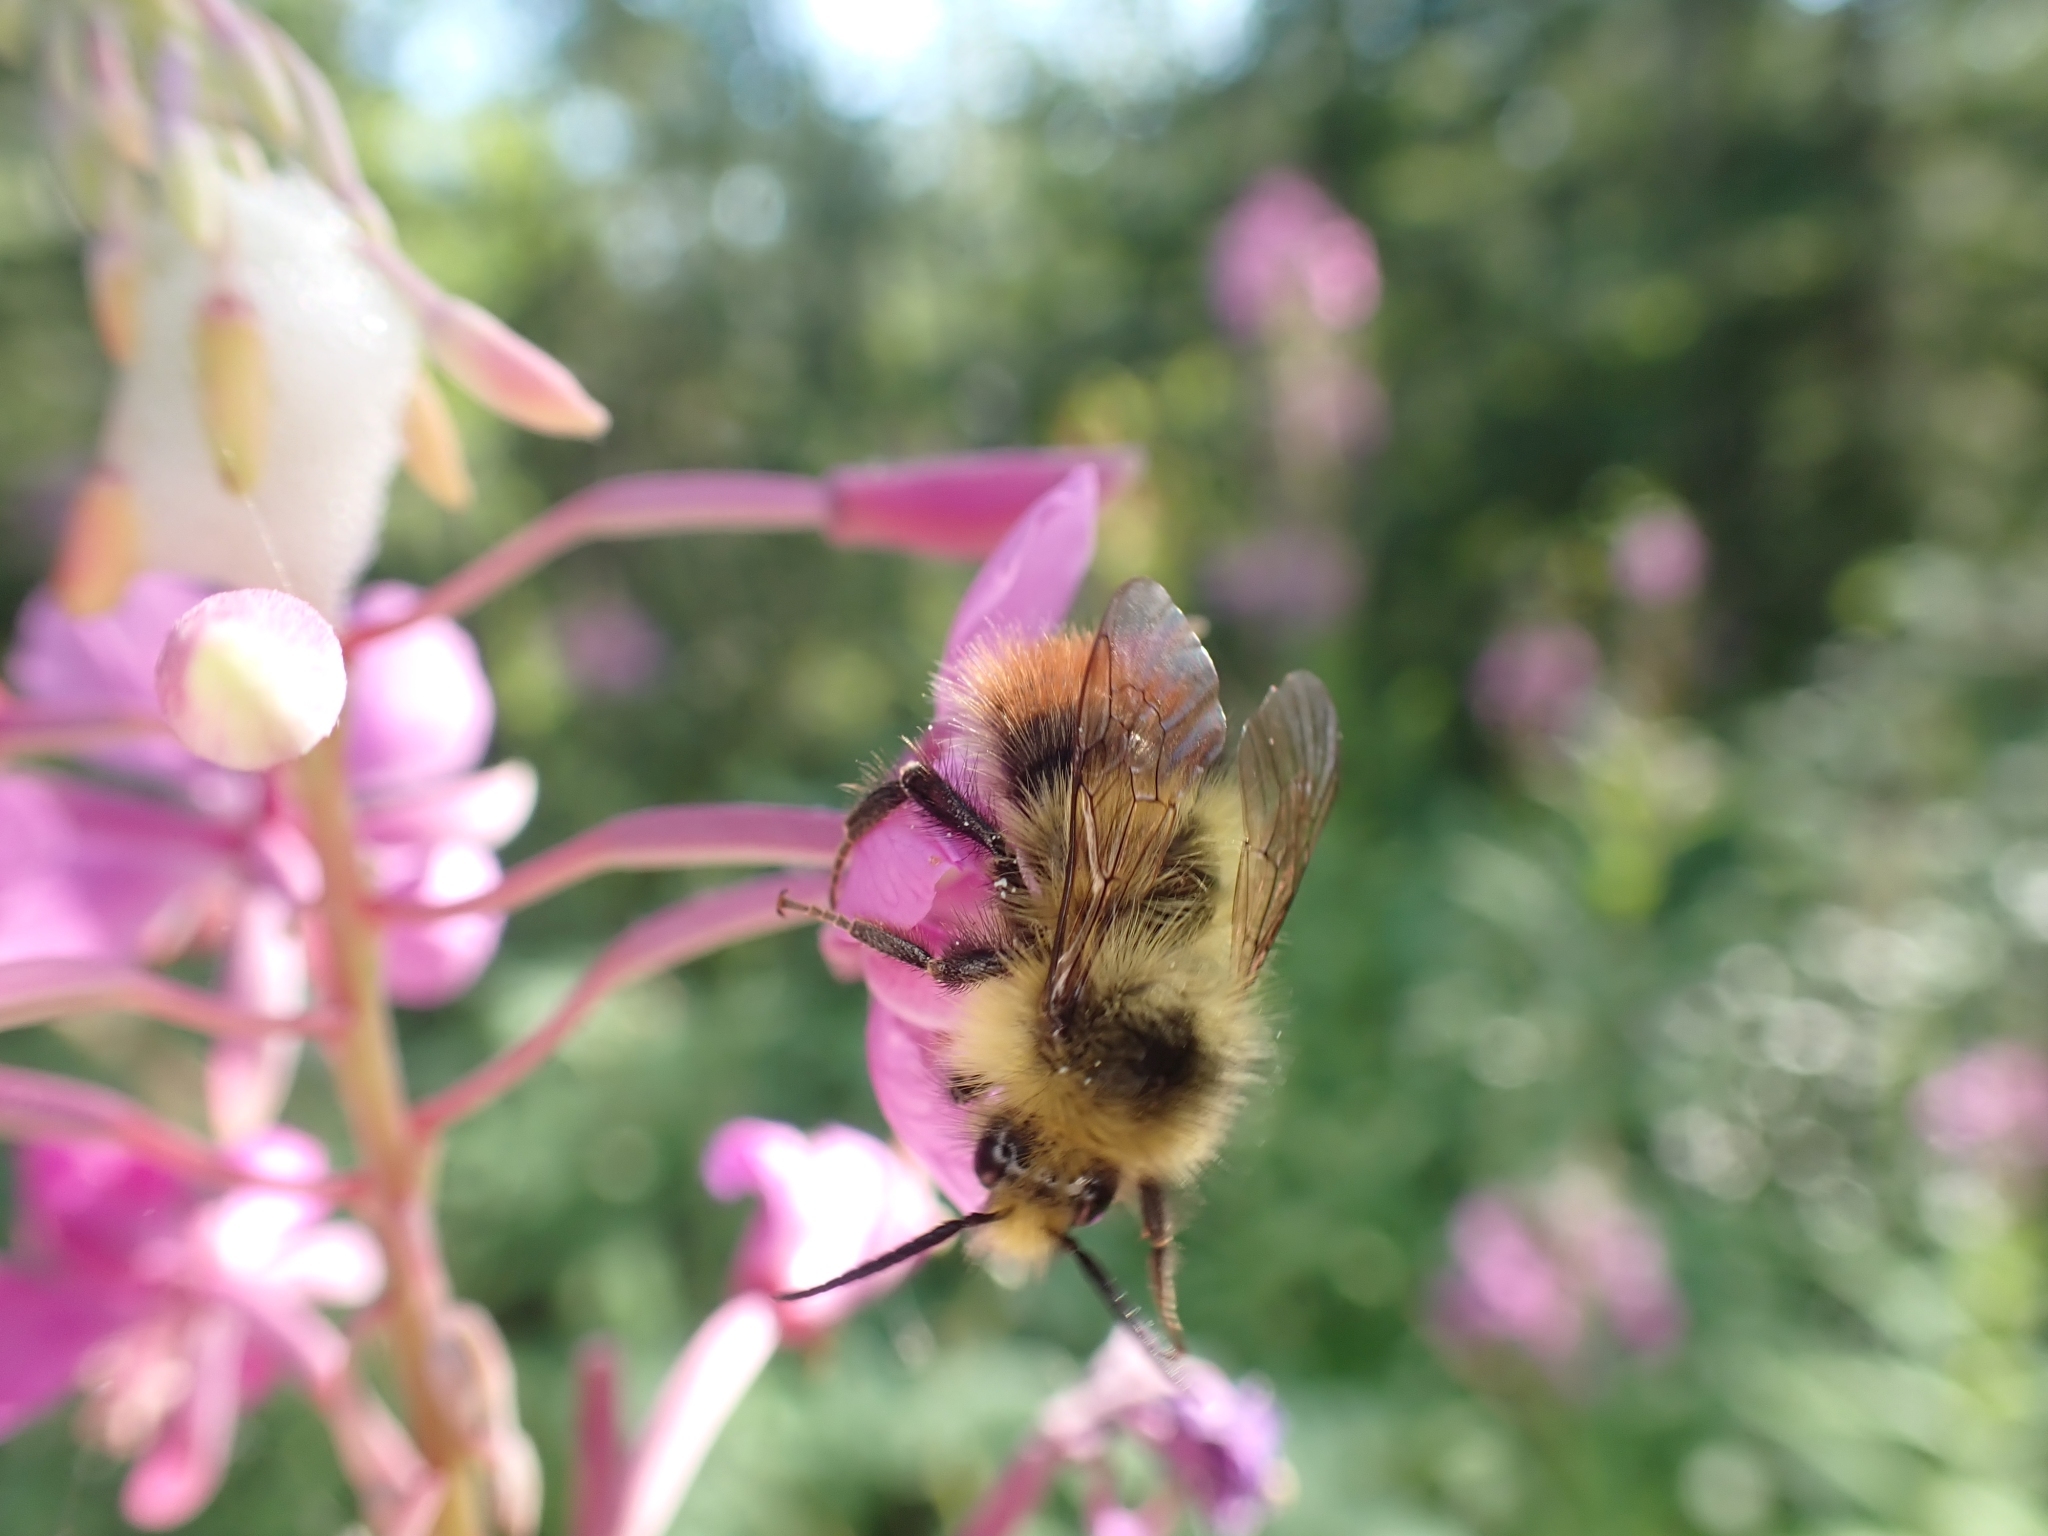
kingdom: Animalia
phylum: Arthropoda
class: Insecta
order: Hymenoptera
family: Apidae
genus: Bombus
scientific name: Bombus mixtus
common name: Fuzzy-horned bumble bee
